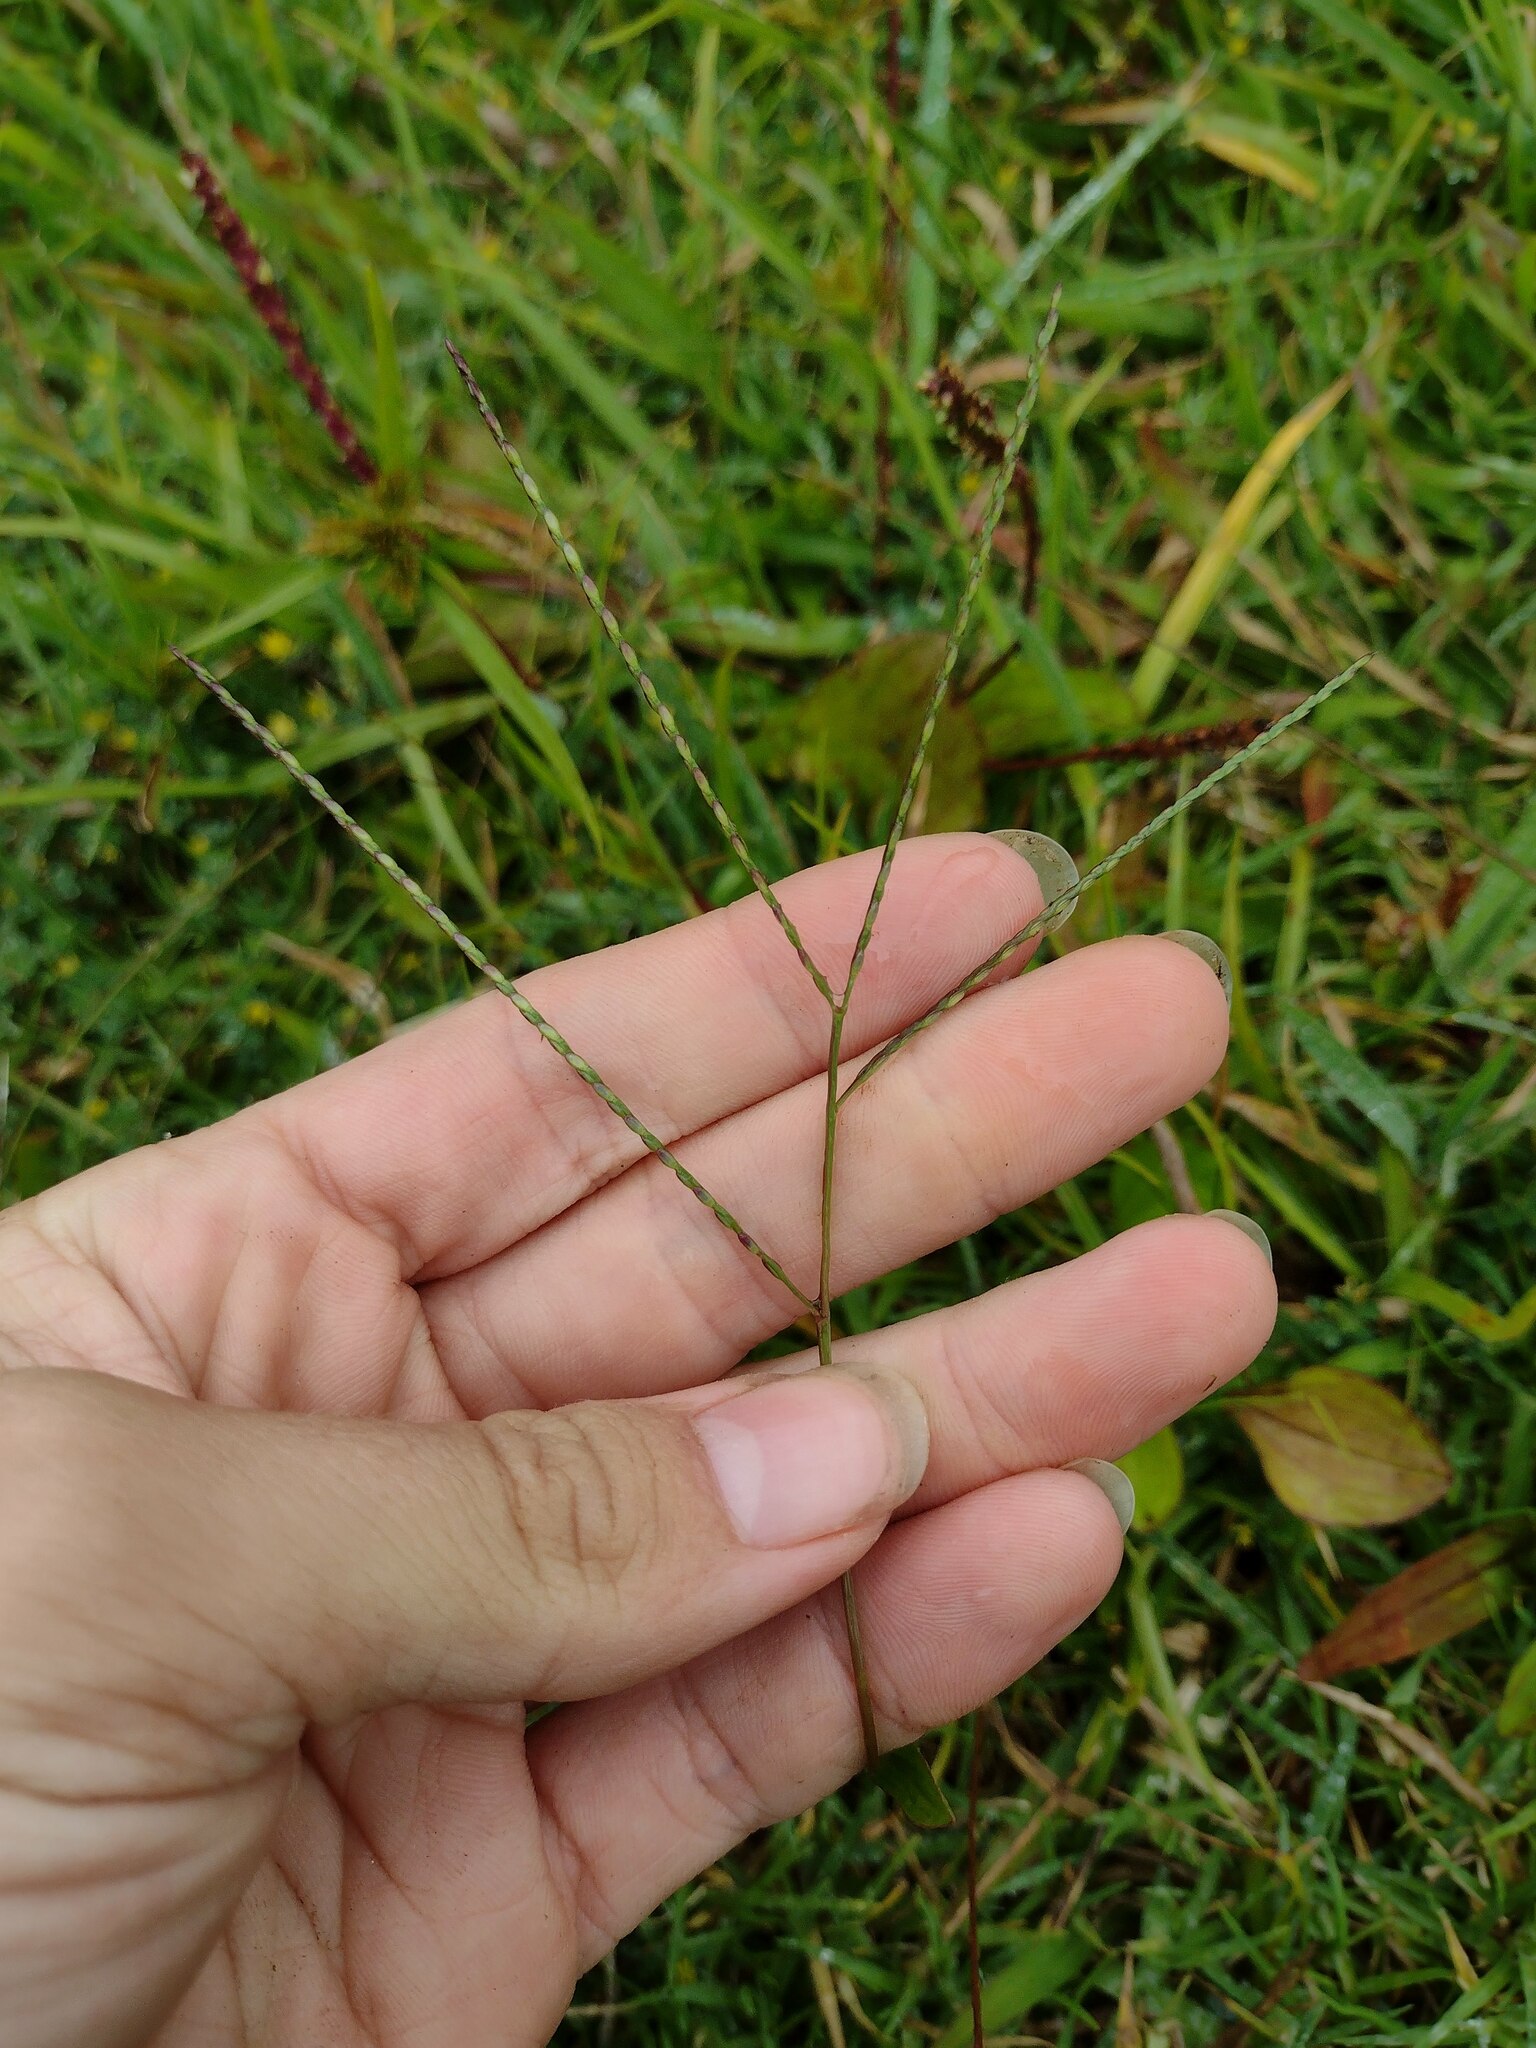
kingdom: Plantae
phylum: Tracheophyta
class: Liliopsida
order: Poales
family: Poaceae
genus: Axonopus
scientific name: Axonopus fissifolius
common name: Common carpetgrass
